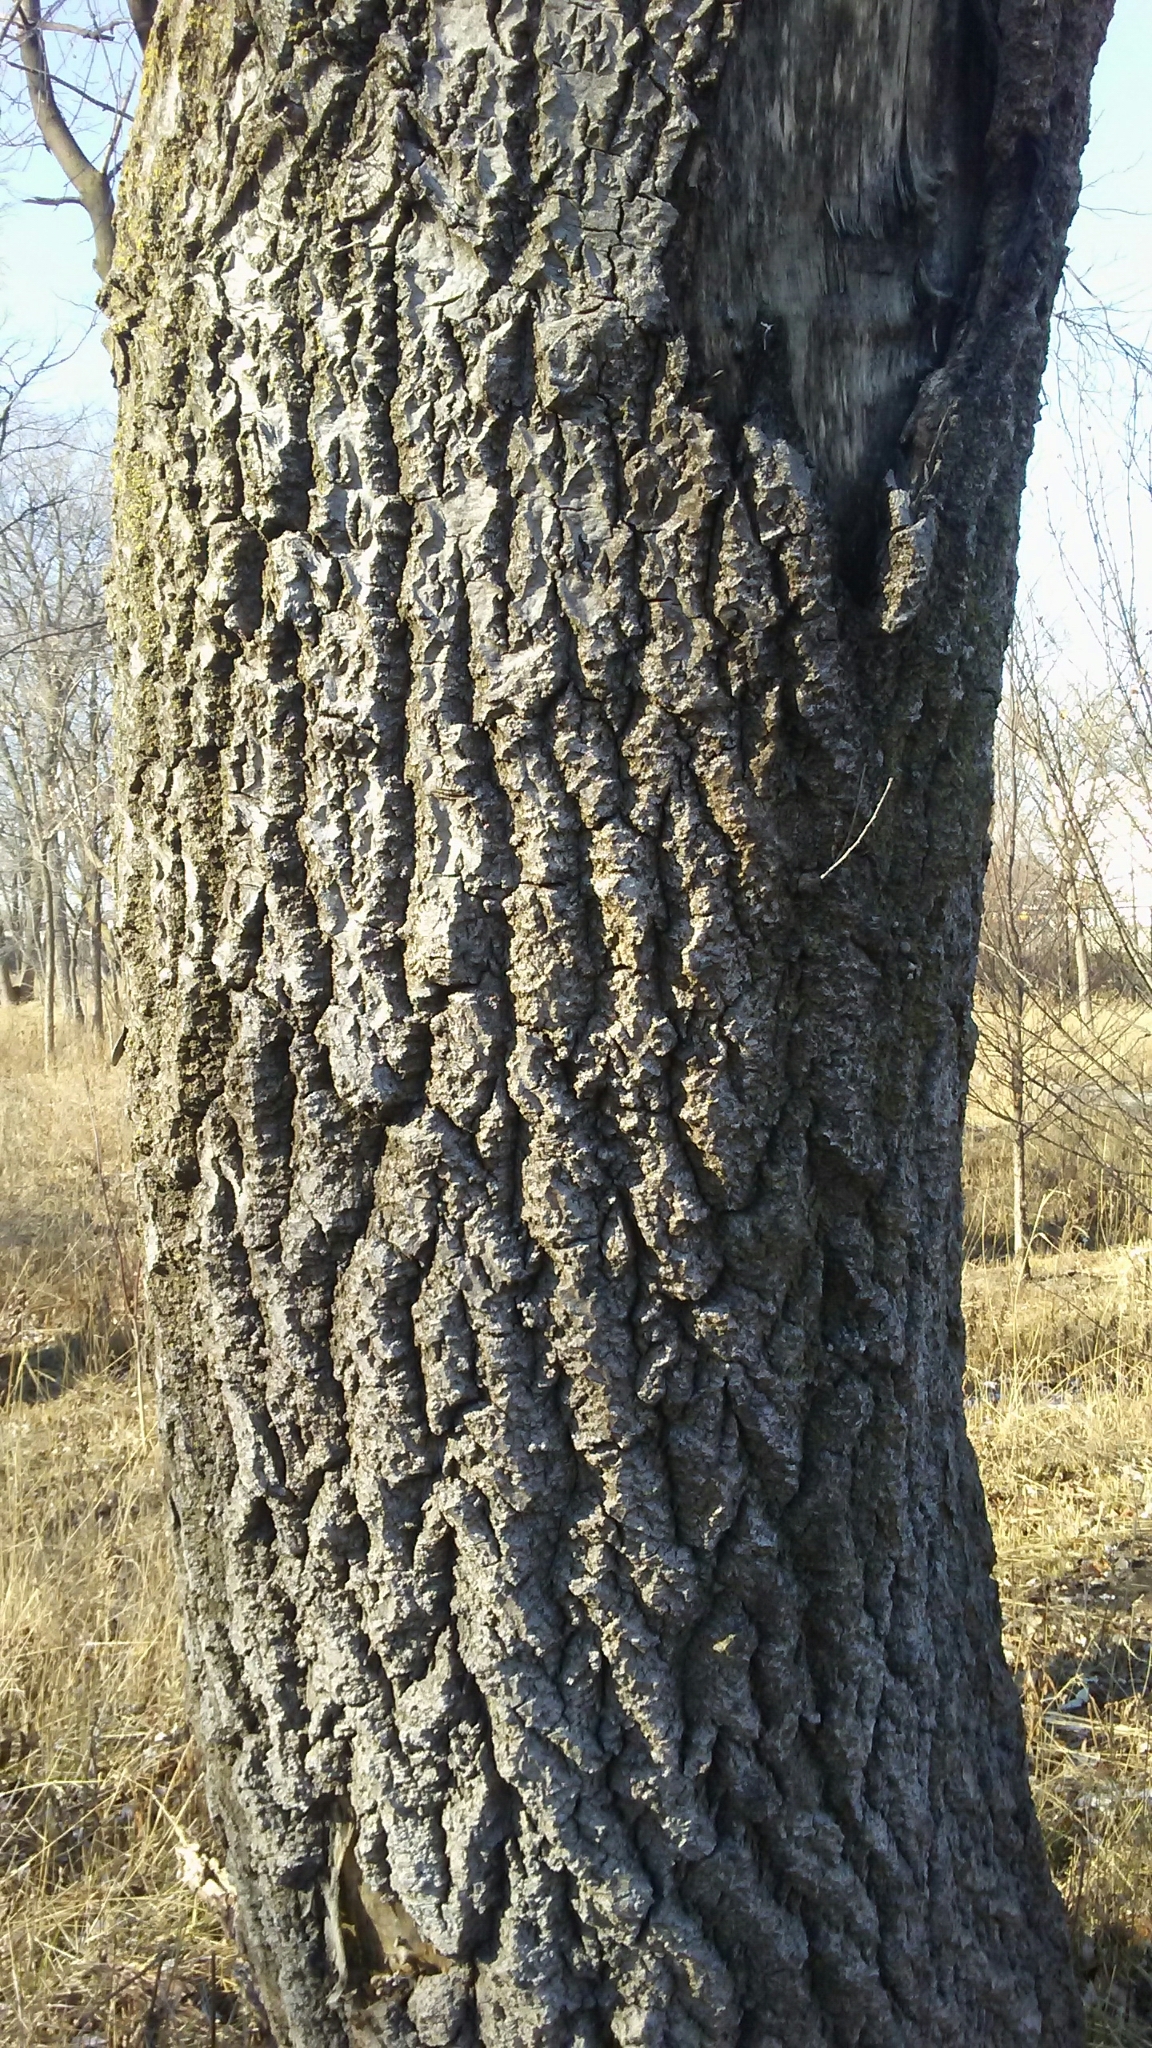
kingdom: Plantae
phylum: Tracheophyta
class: Magnoliopsida
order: Malpighiales
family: Salicaceae
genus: Populus
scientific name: Populus alba
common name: White poplar
